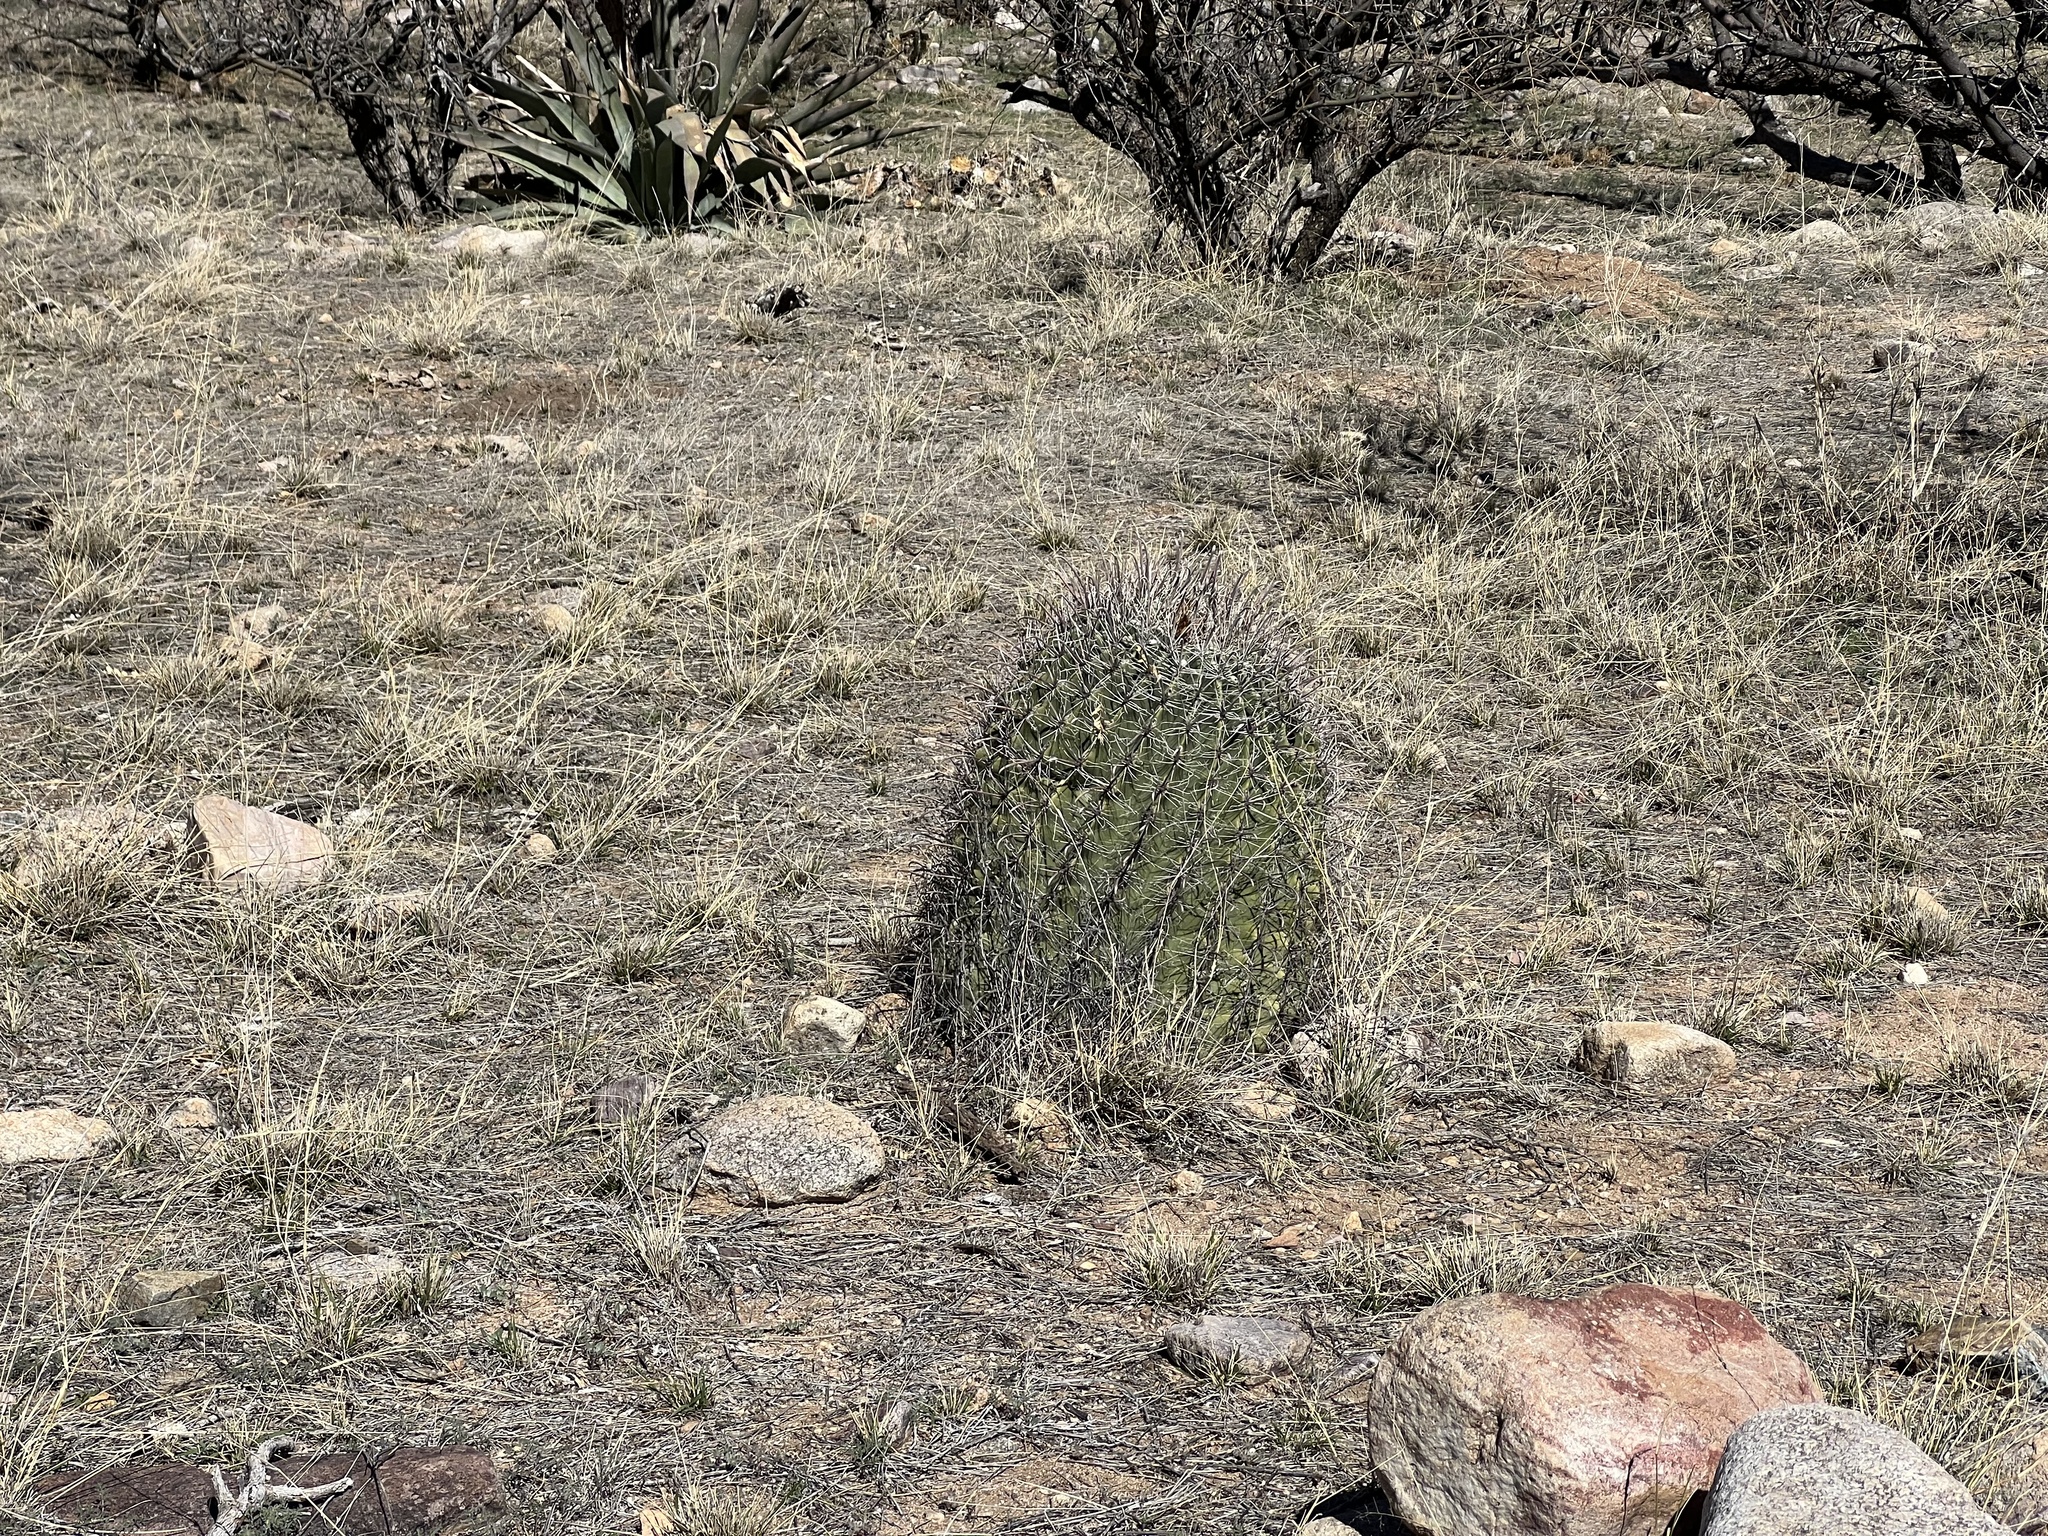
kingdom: Plantae
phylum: Tracheophyta
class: Magnoliopsida
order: Caryophyllales
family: Cactaceae
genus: Ferocactus
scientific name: Ferocactus wislizeni
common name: Candy barrel cactus
